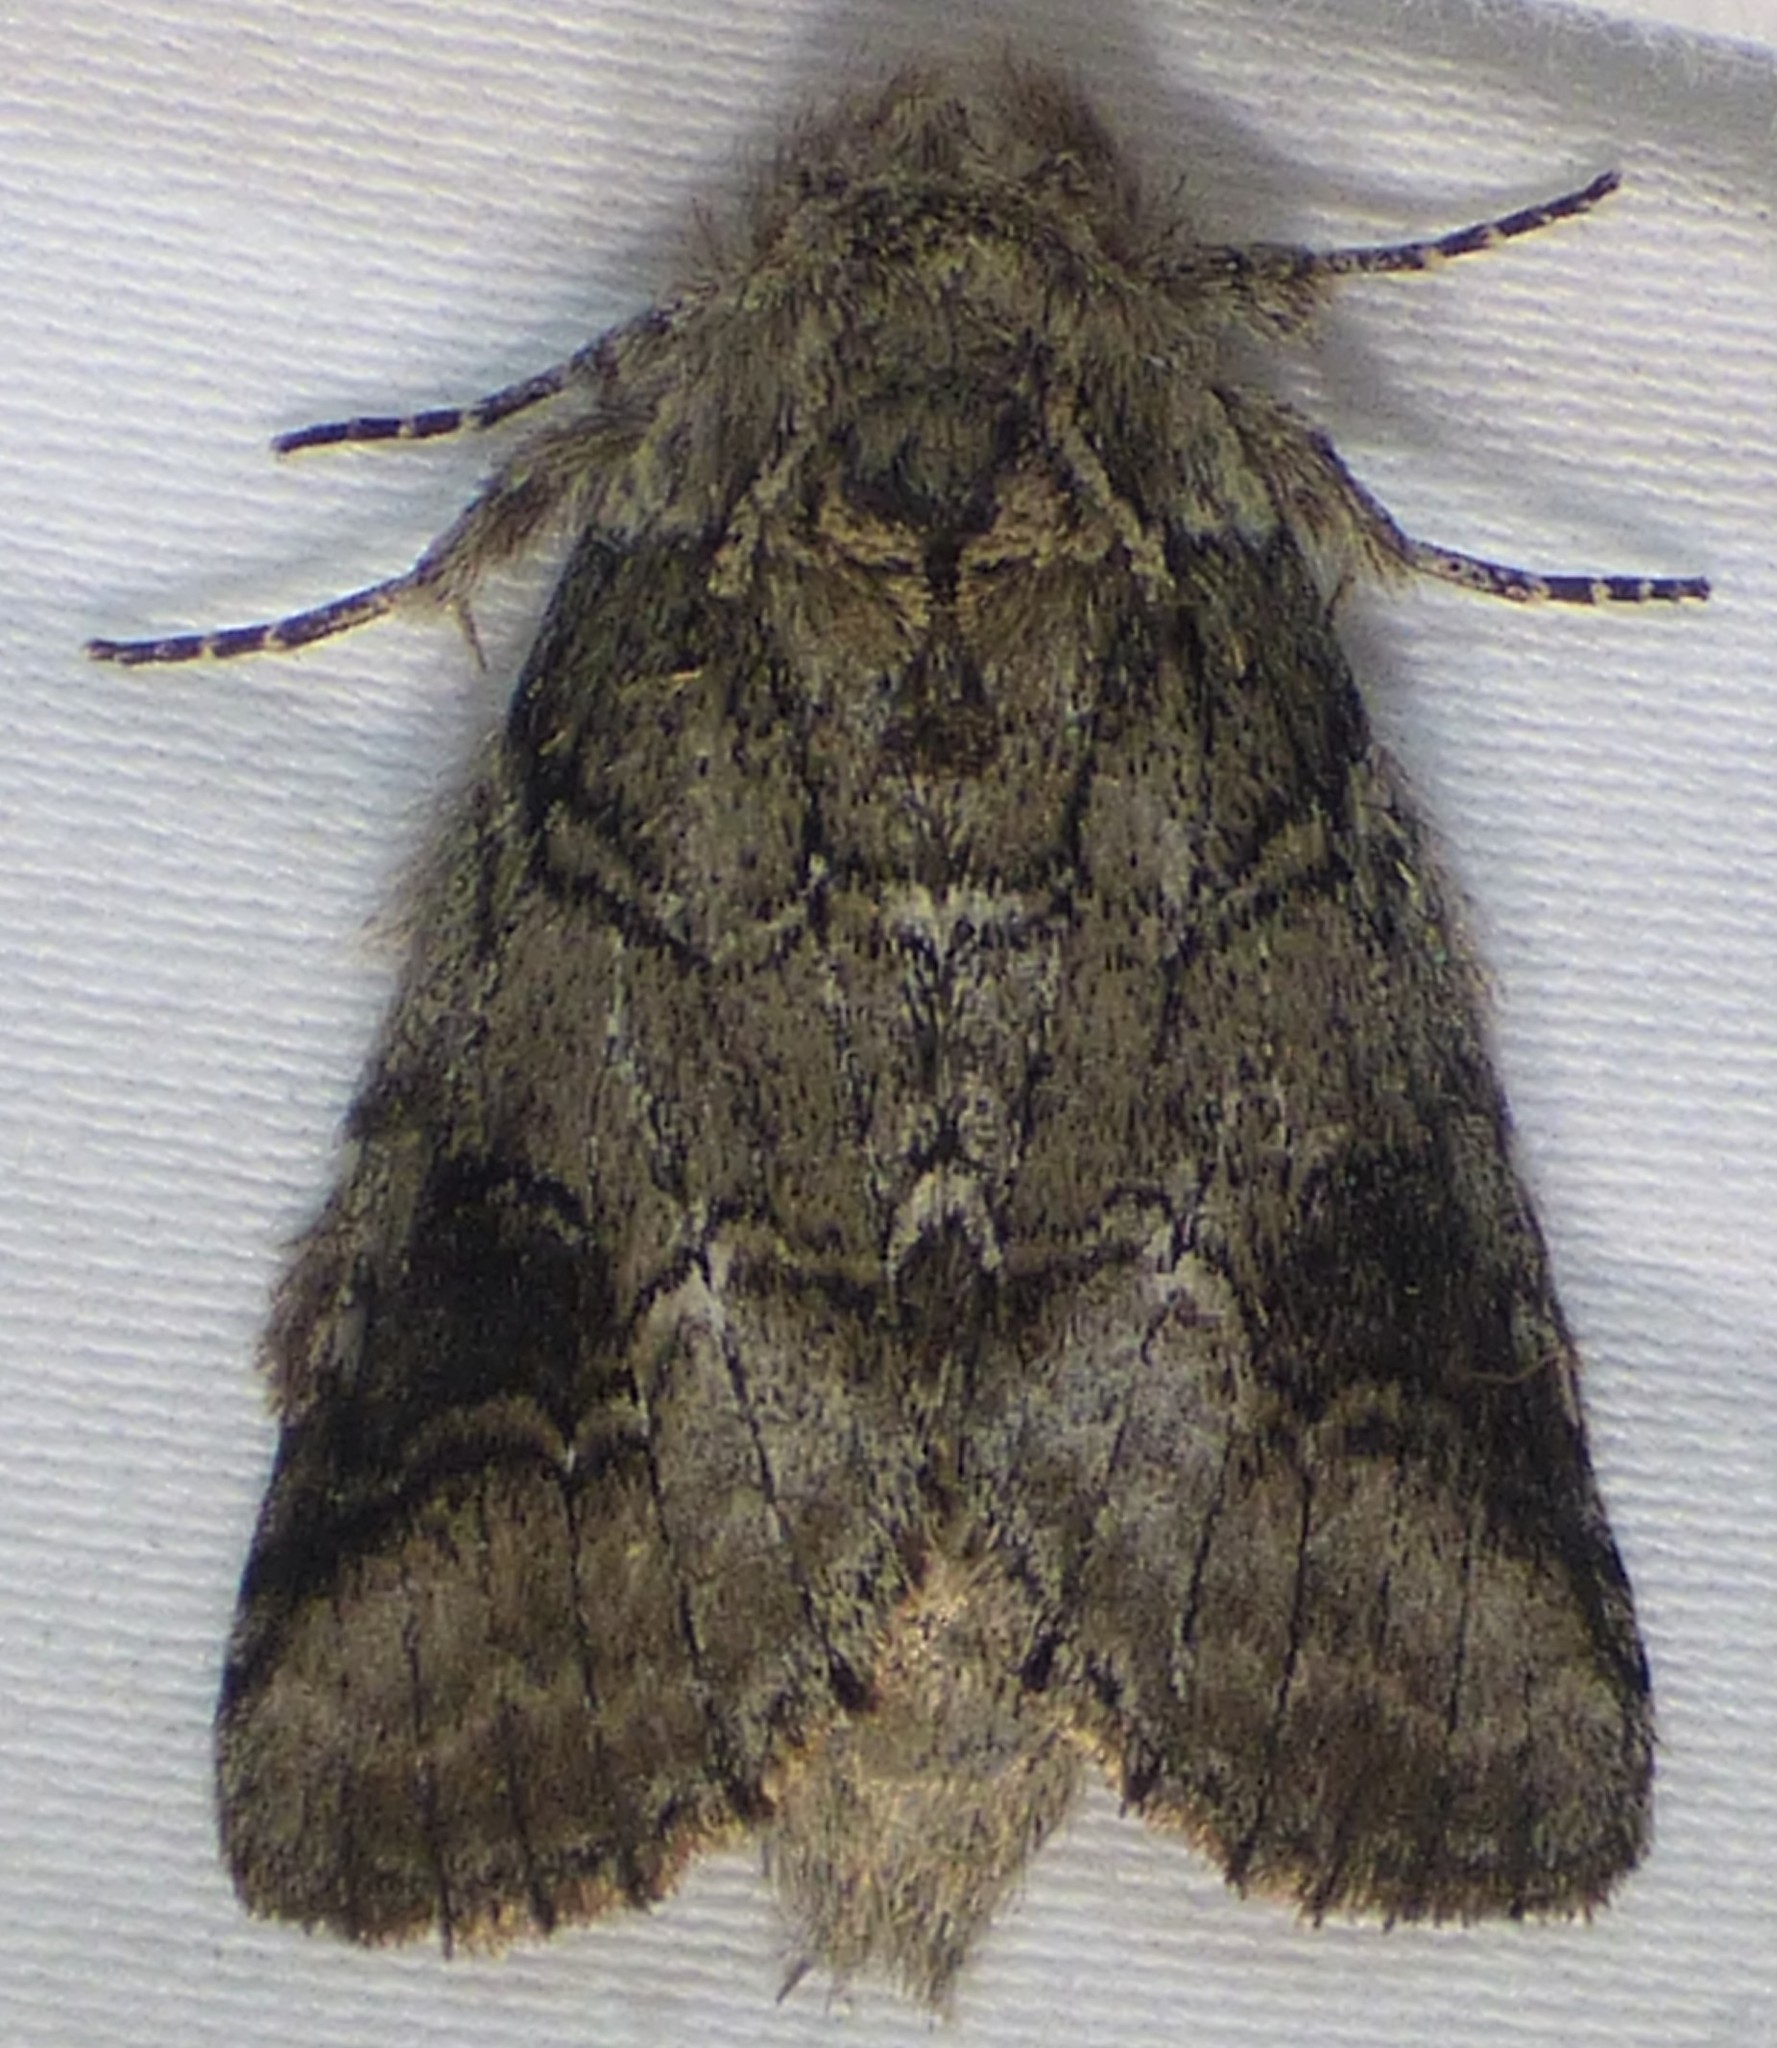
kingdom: Animalia
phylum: Arthropoda
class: Insecta
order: Lepidoptera
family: Notodontidae
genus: Lochmaeus
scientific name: Lochmaeus bilineata
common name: Double-lined prominent
